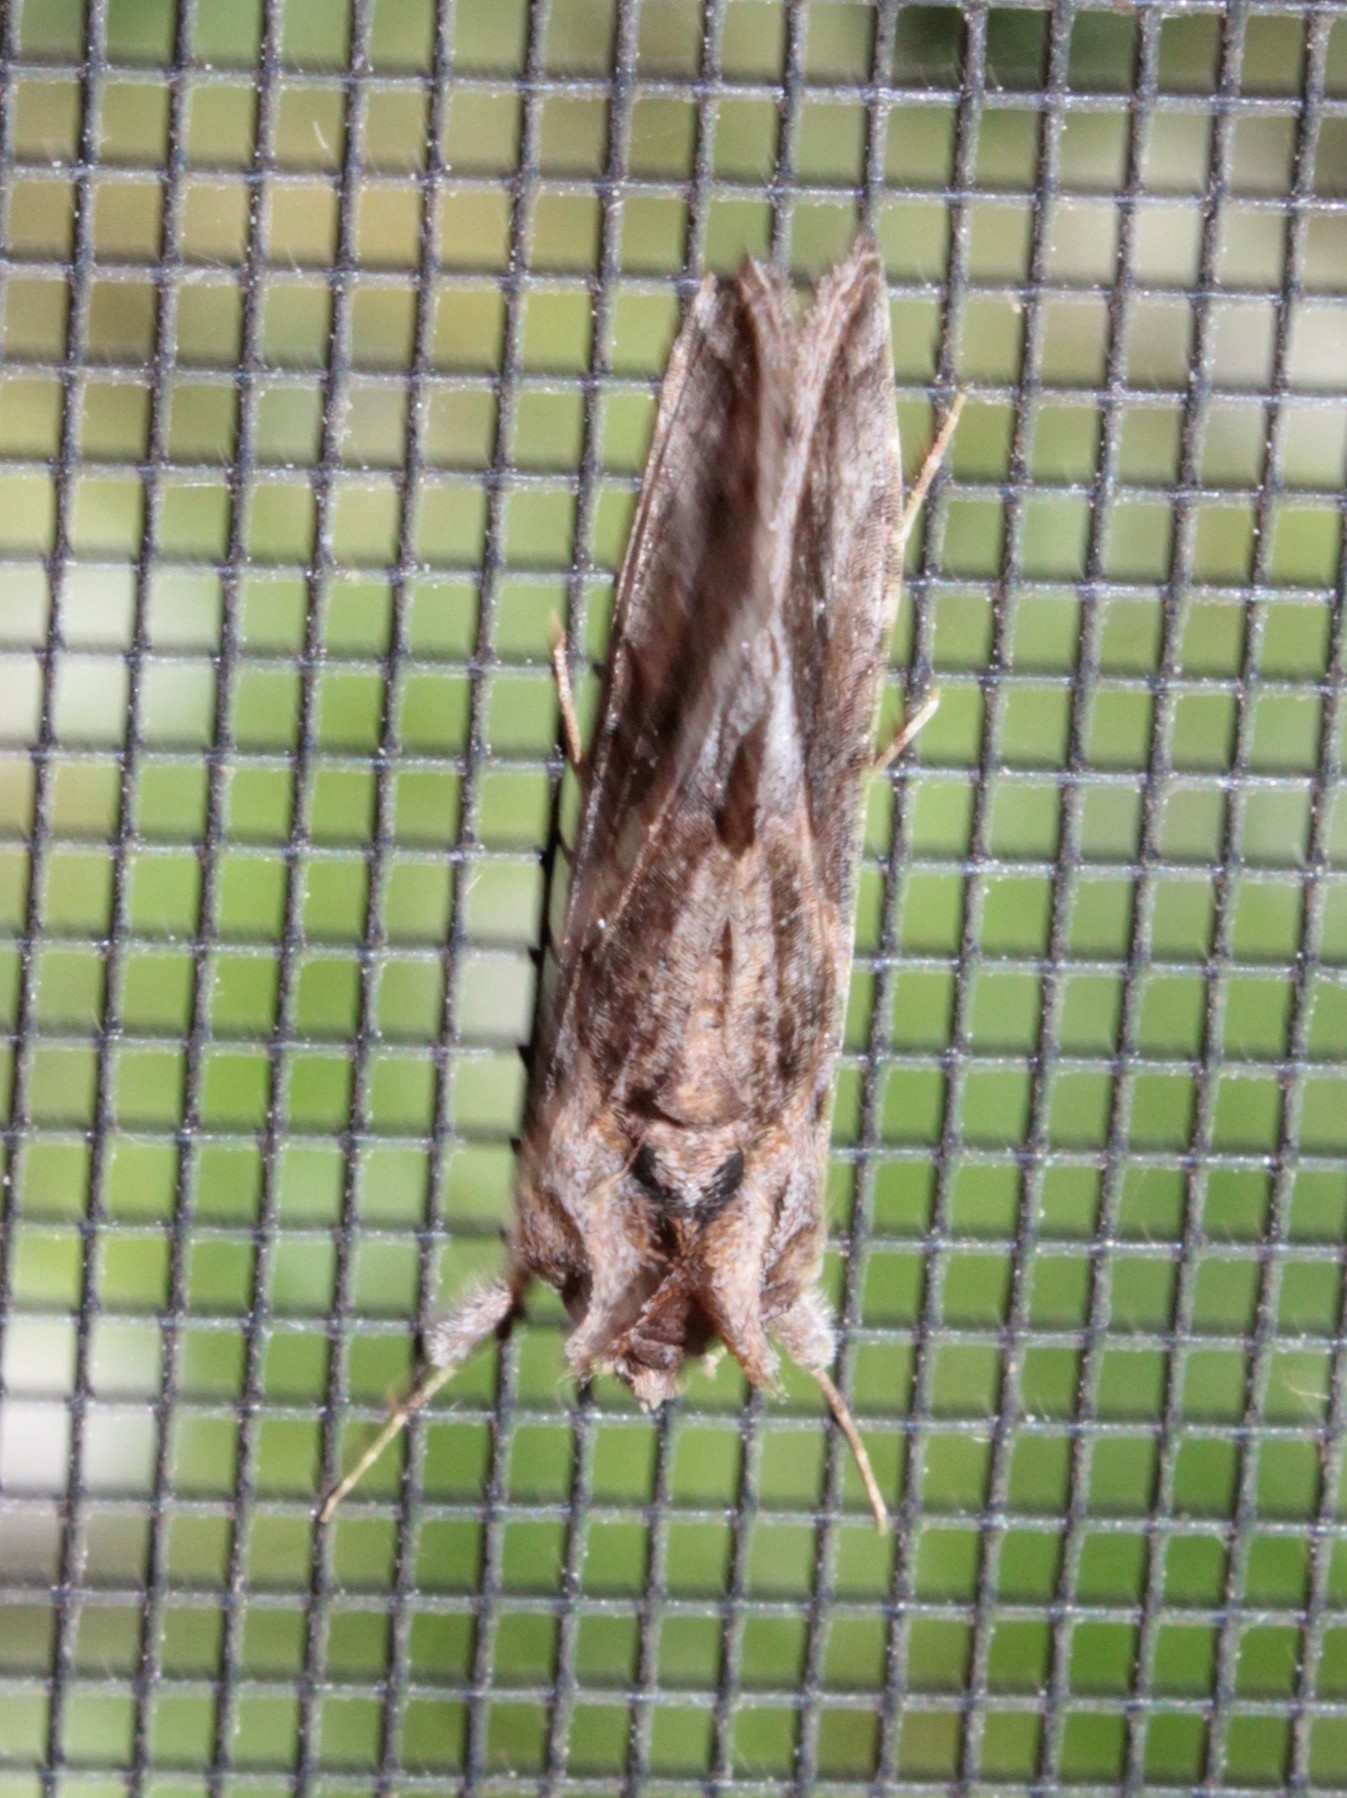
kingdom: Animalia
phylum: Arthropoda
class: Insecta
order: Lepidoptera
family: Noctuidae
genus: Autographa
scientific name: Autographa precationis
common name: Common looper moth
